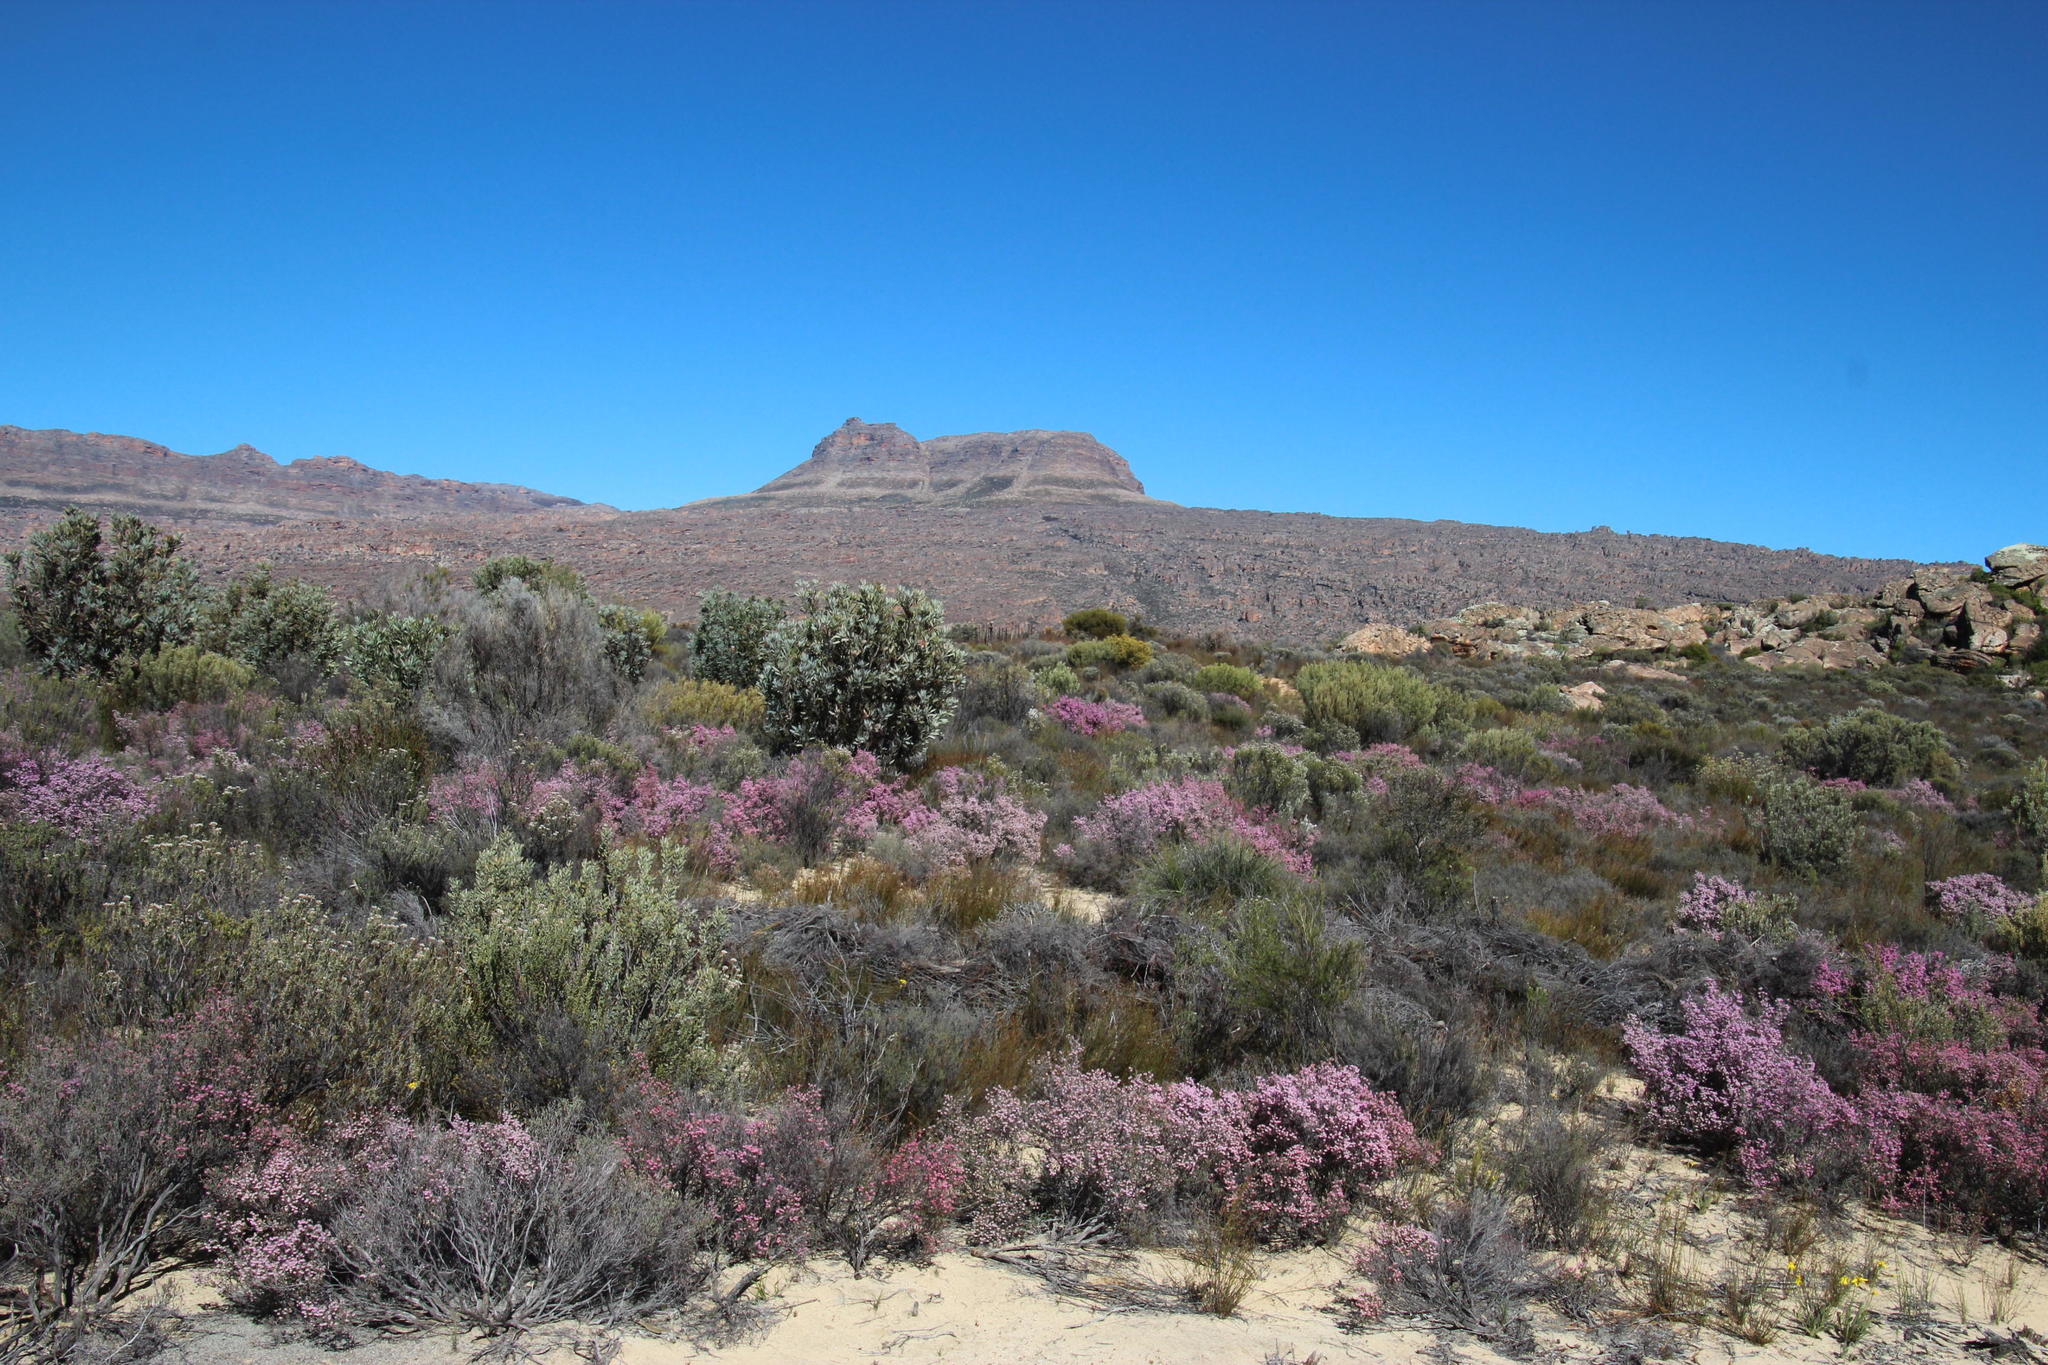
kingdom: Plantae
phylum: Tracheophyta
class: Magnoliopsida
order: Ericales
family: Ericaceae
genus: Erica
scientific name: Erica plumosa
